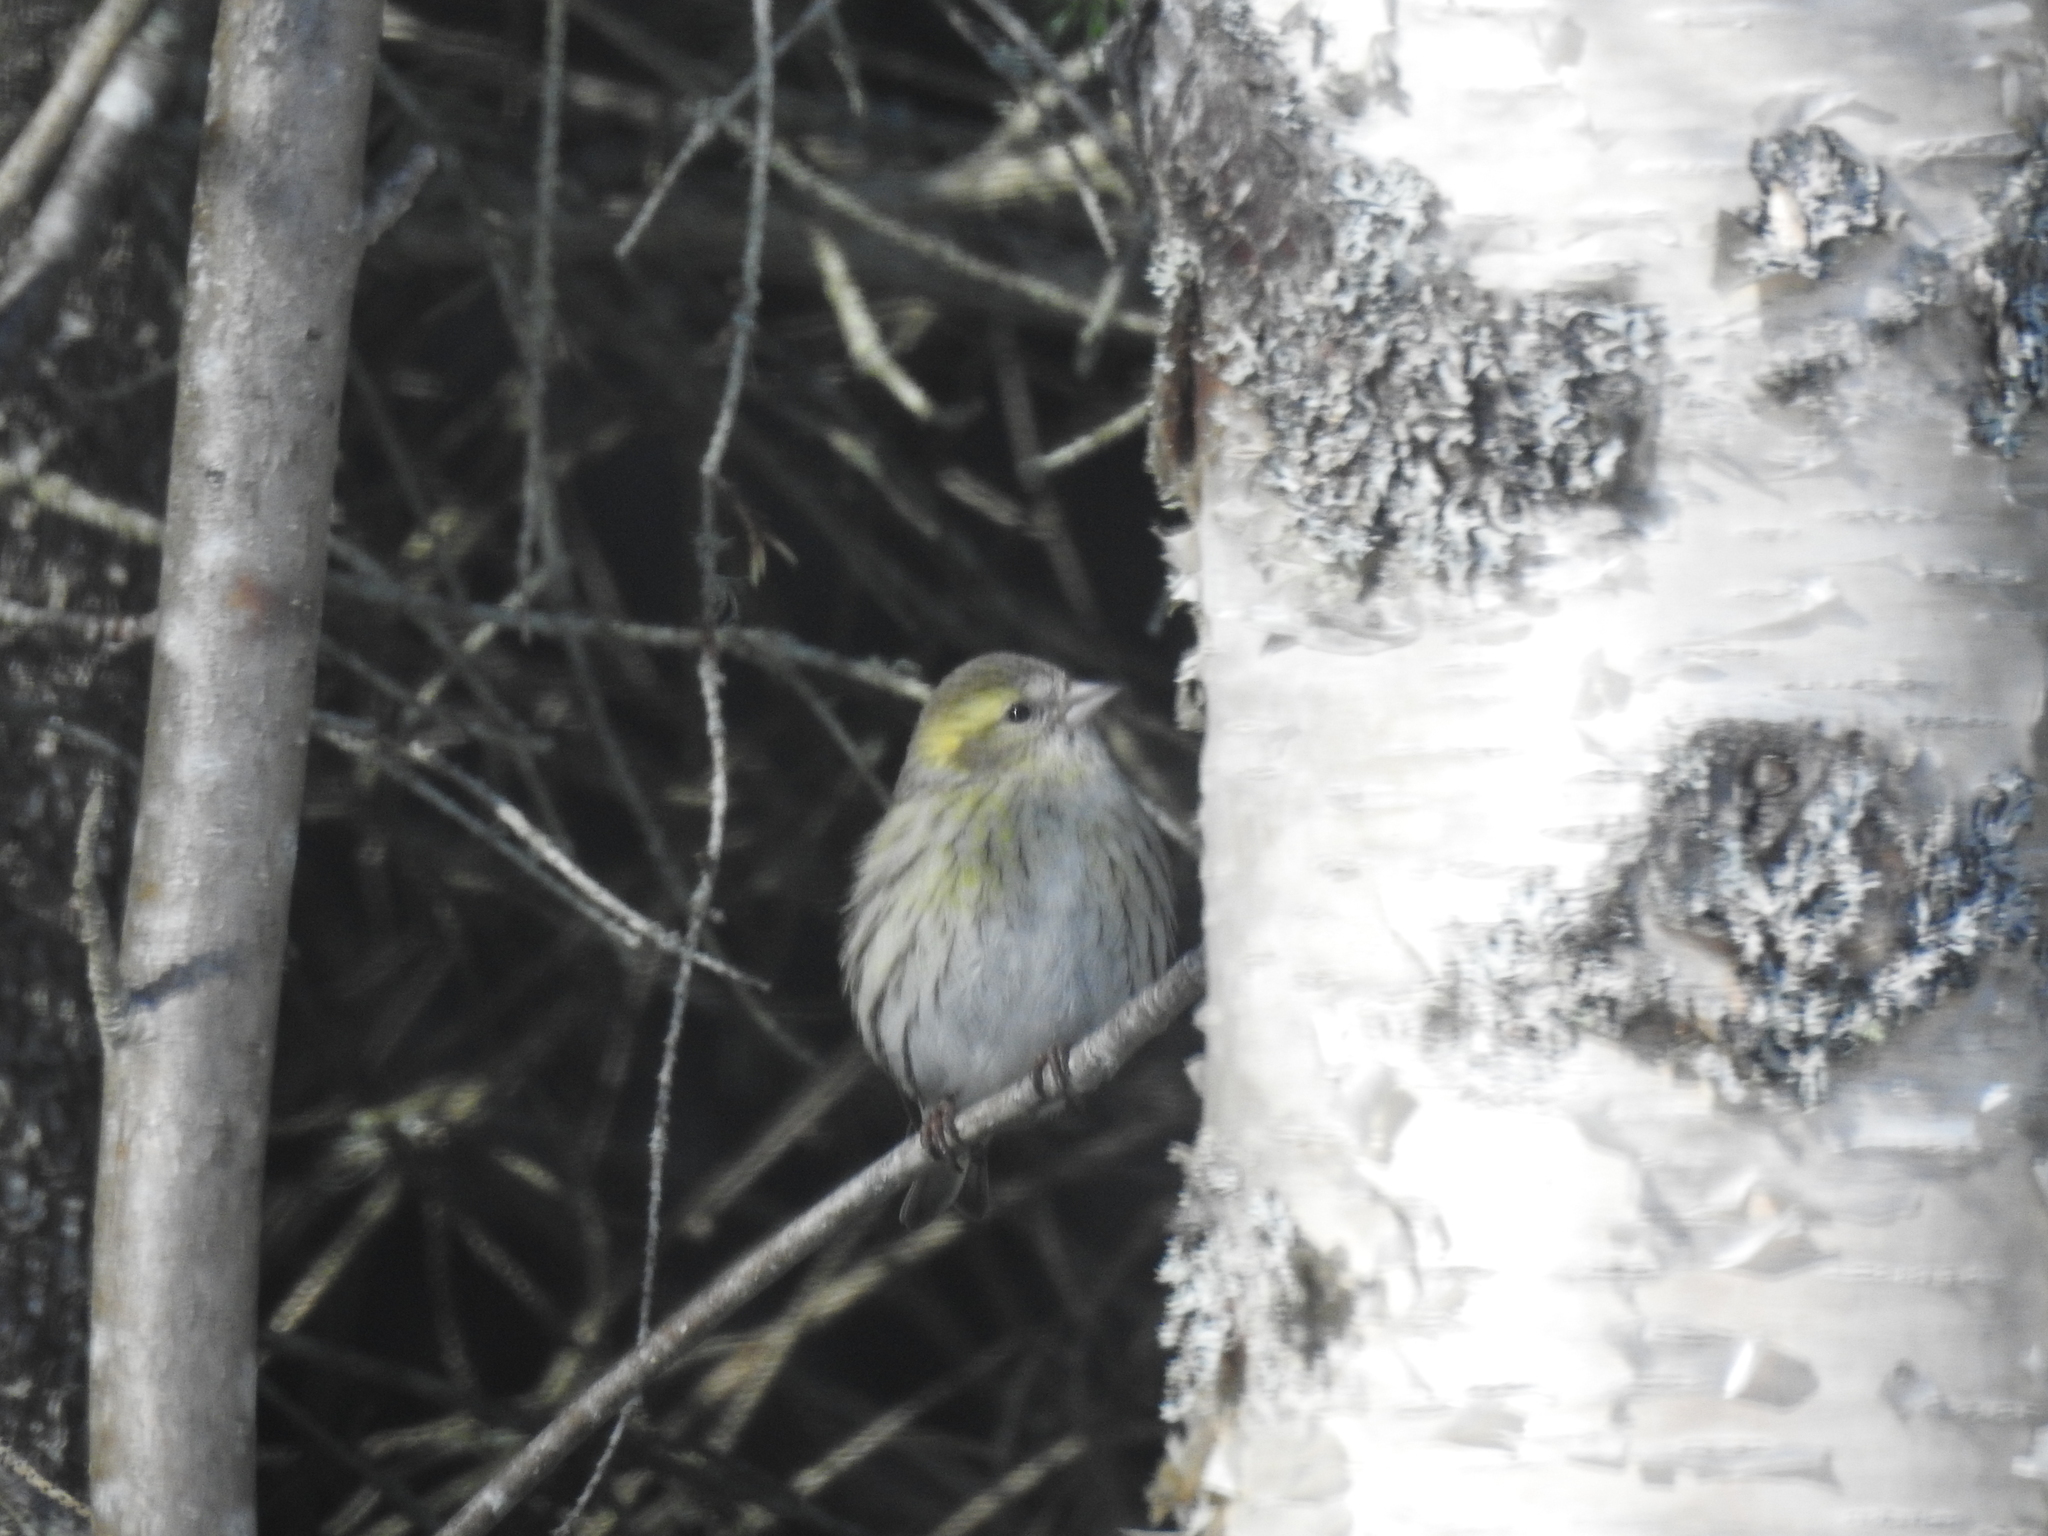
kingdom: Animalia
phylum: Chordata
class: Aves
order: Passeriformes
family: Fringillidae
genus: Spinus
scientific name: Spinus spinus
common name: Eurasian siskin
